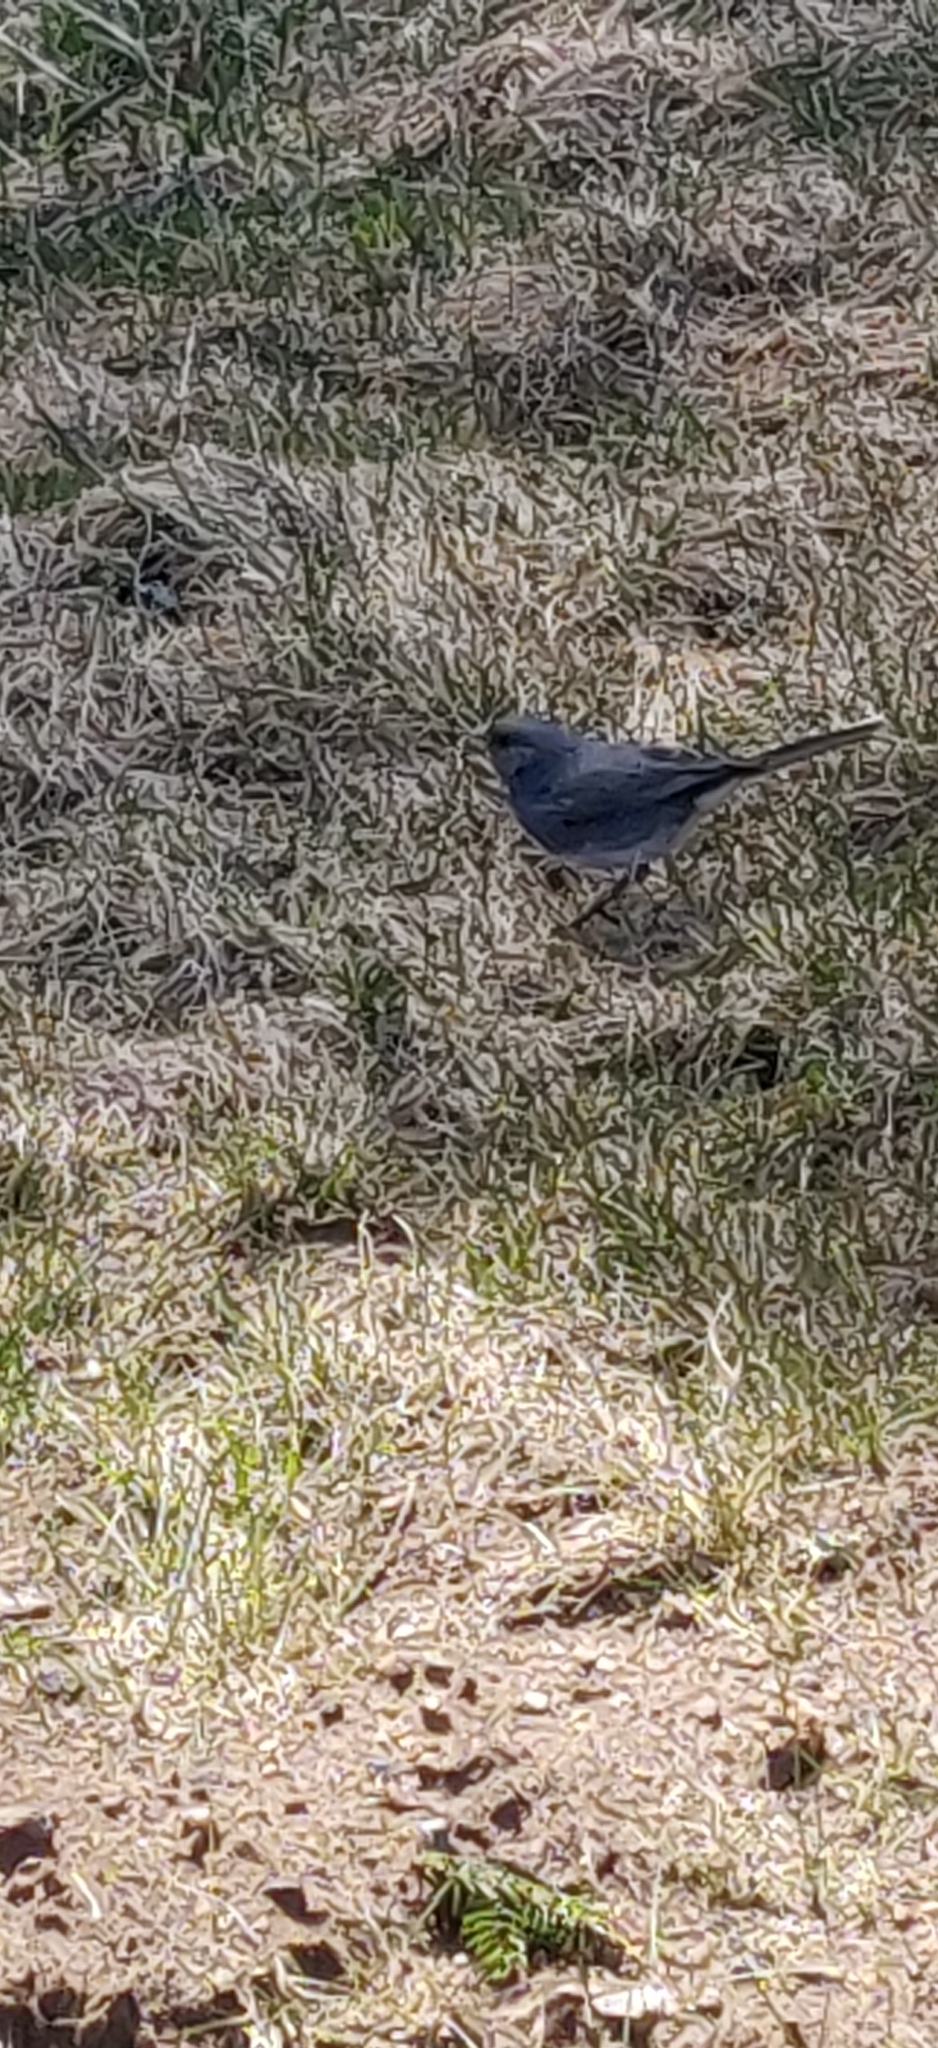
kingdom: Animalia
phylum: Chordata
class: Aves
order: Passeriformes
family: Passerellidae
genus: Junco
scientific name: Junco hyemalis
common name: Dark-eyed junco
